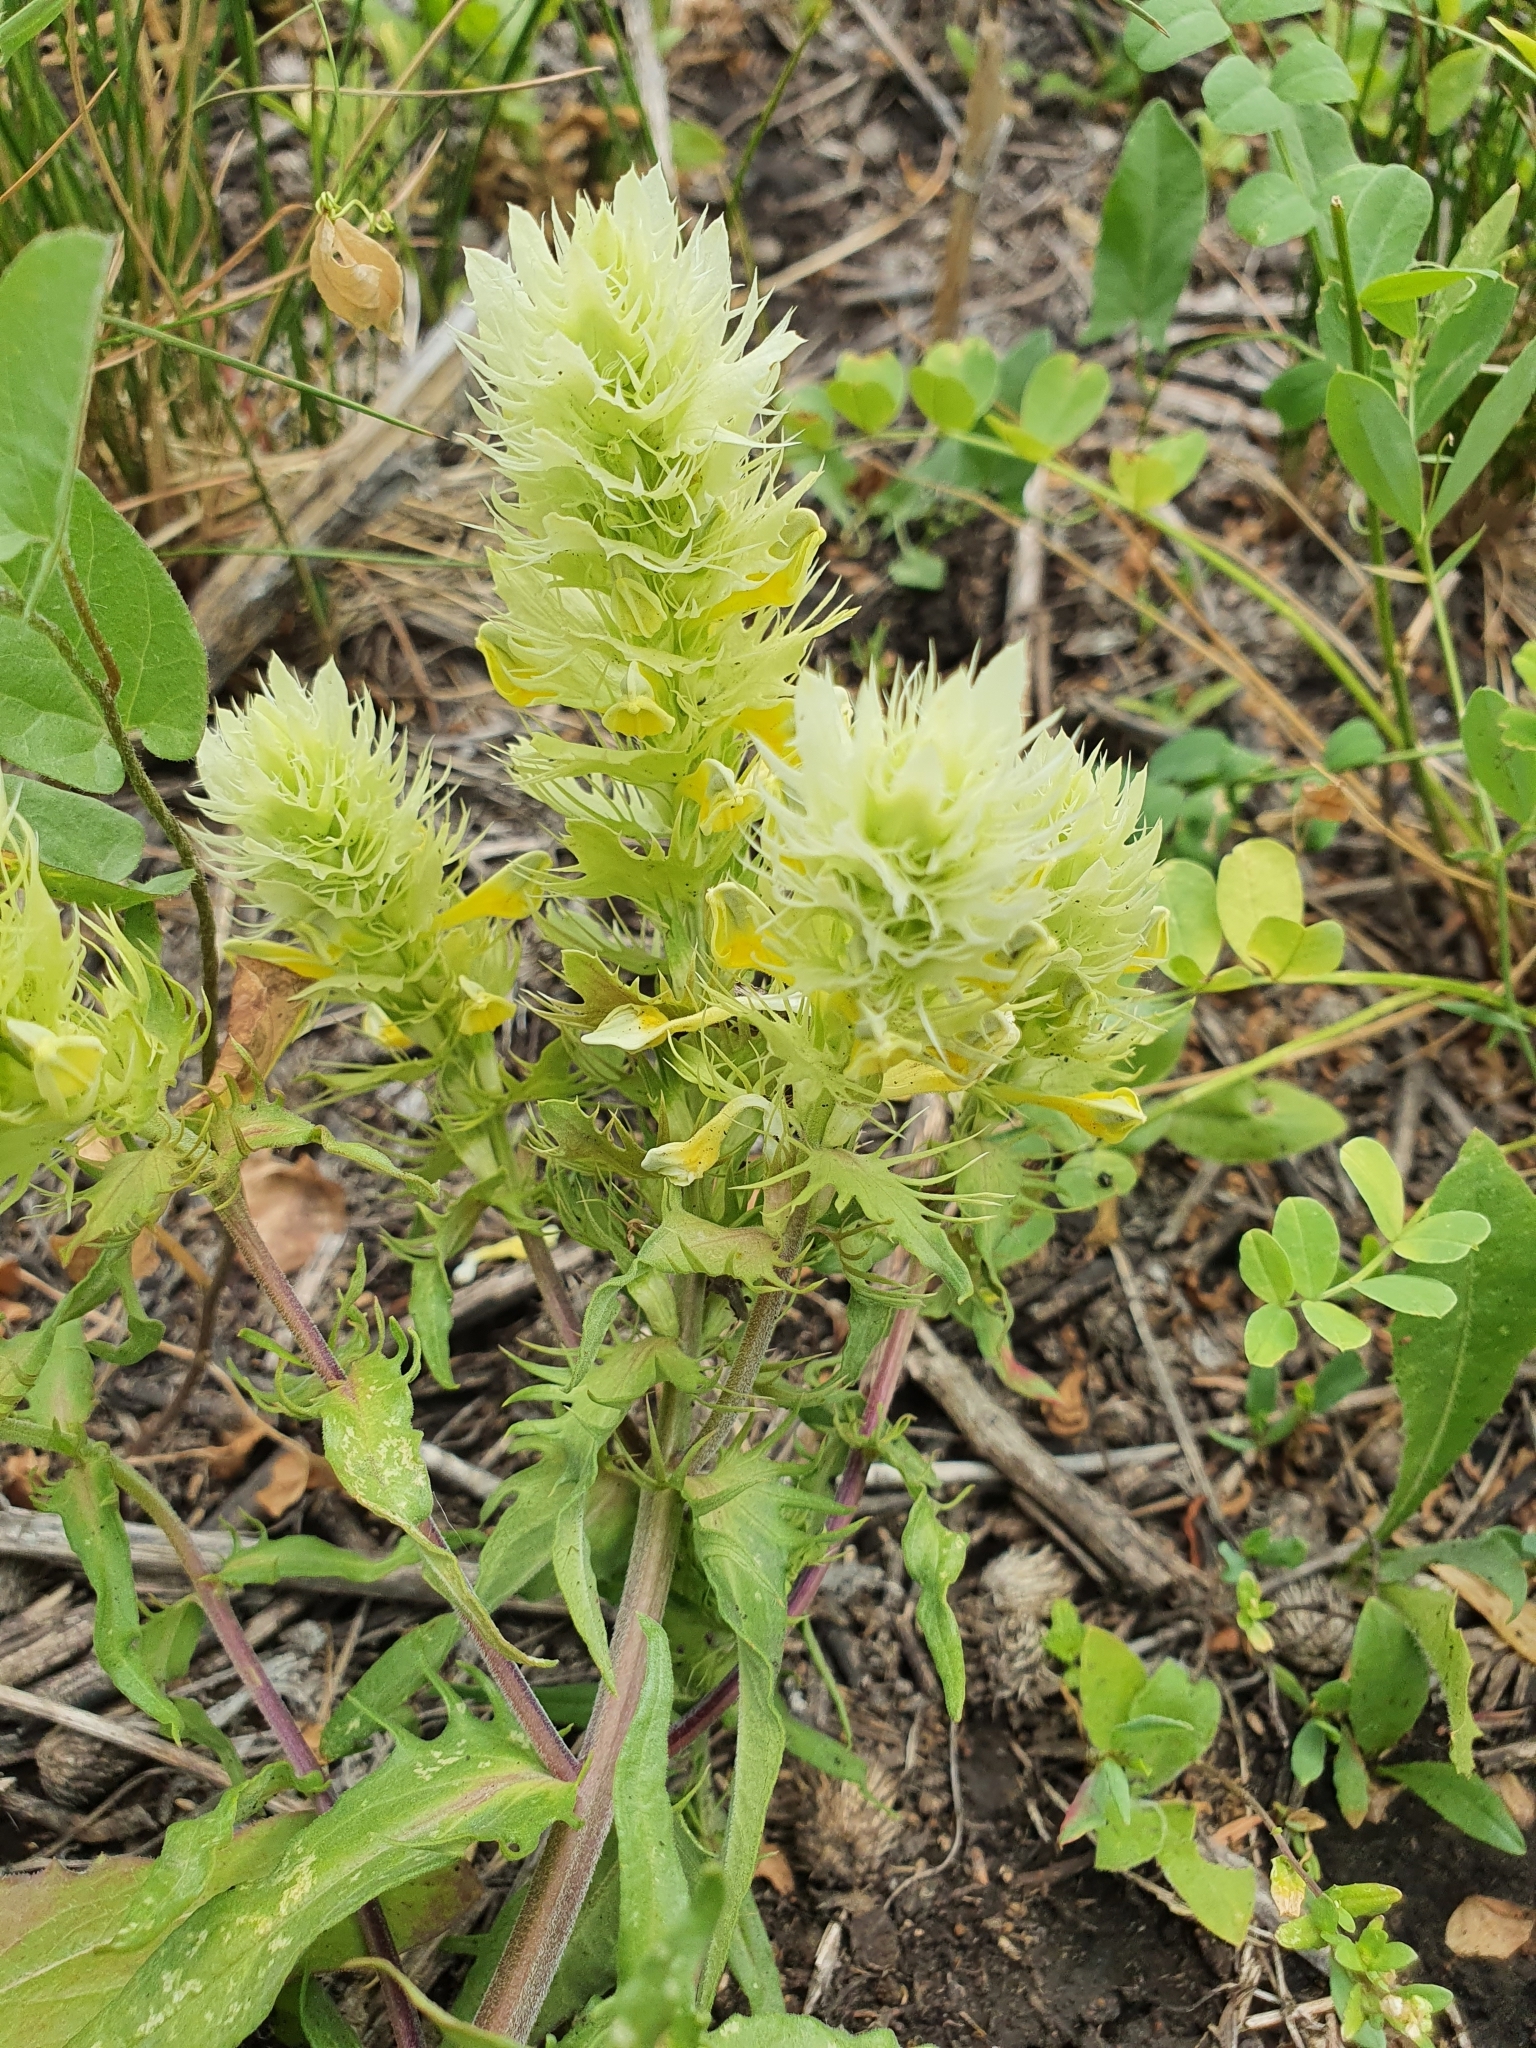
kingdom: Plantae
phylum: Tracheophyta
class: Magnoliopsida
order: Lamiales
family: Orobanchaceae
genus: Melampyrum
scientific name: Melampyrum arvense
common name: Field cow-wheat
